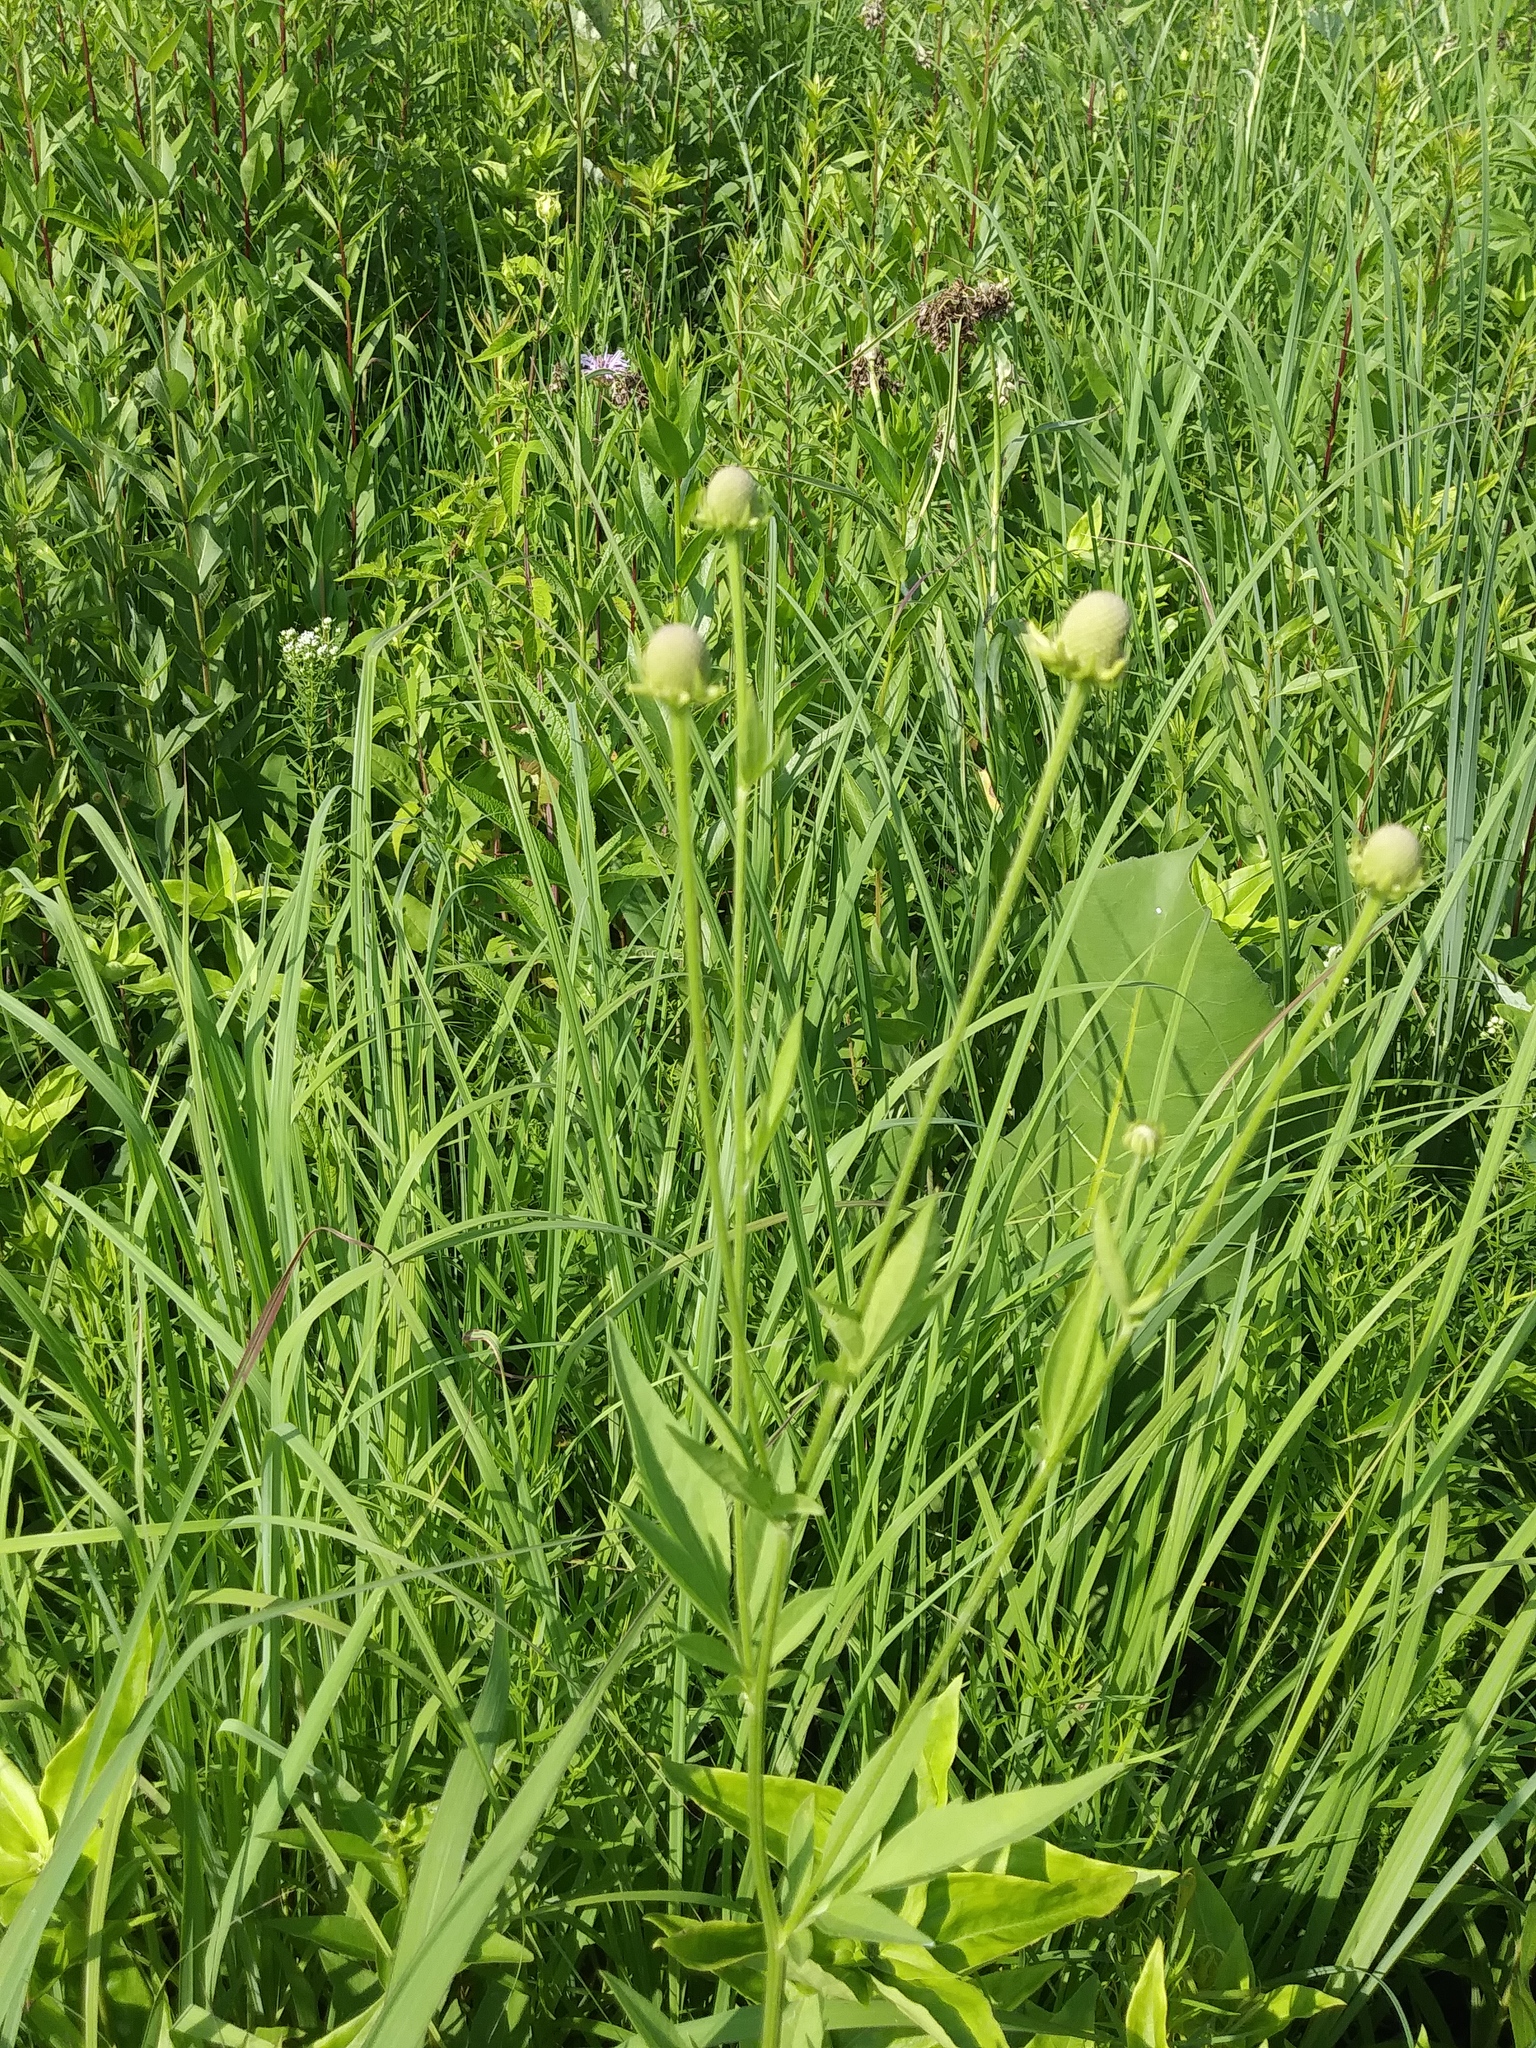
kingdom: Plantae
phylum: Tracheophyta
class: Magnoliopsida
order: Asterales
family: Asteraceae
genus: Ratibida
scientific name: Ratibida pinnata
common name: Drooping prairie-coneflower
